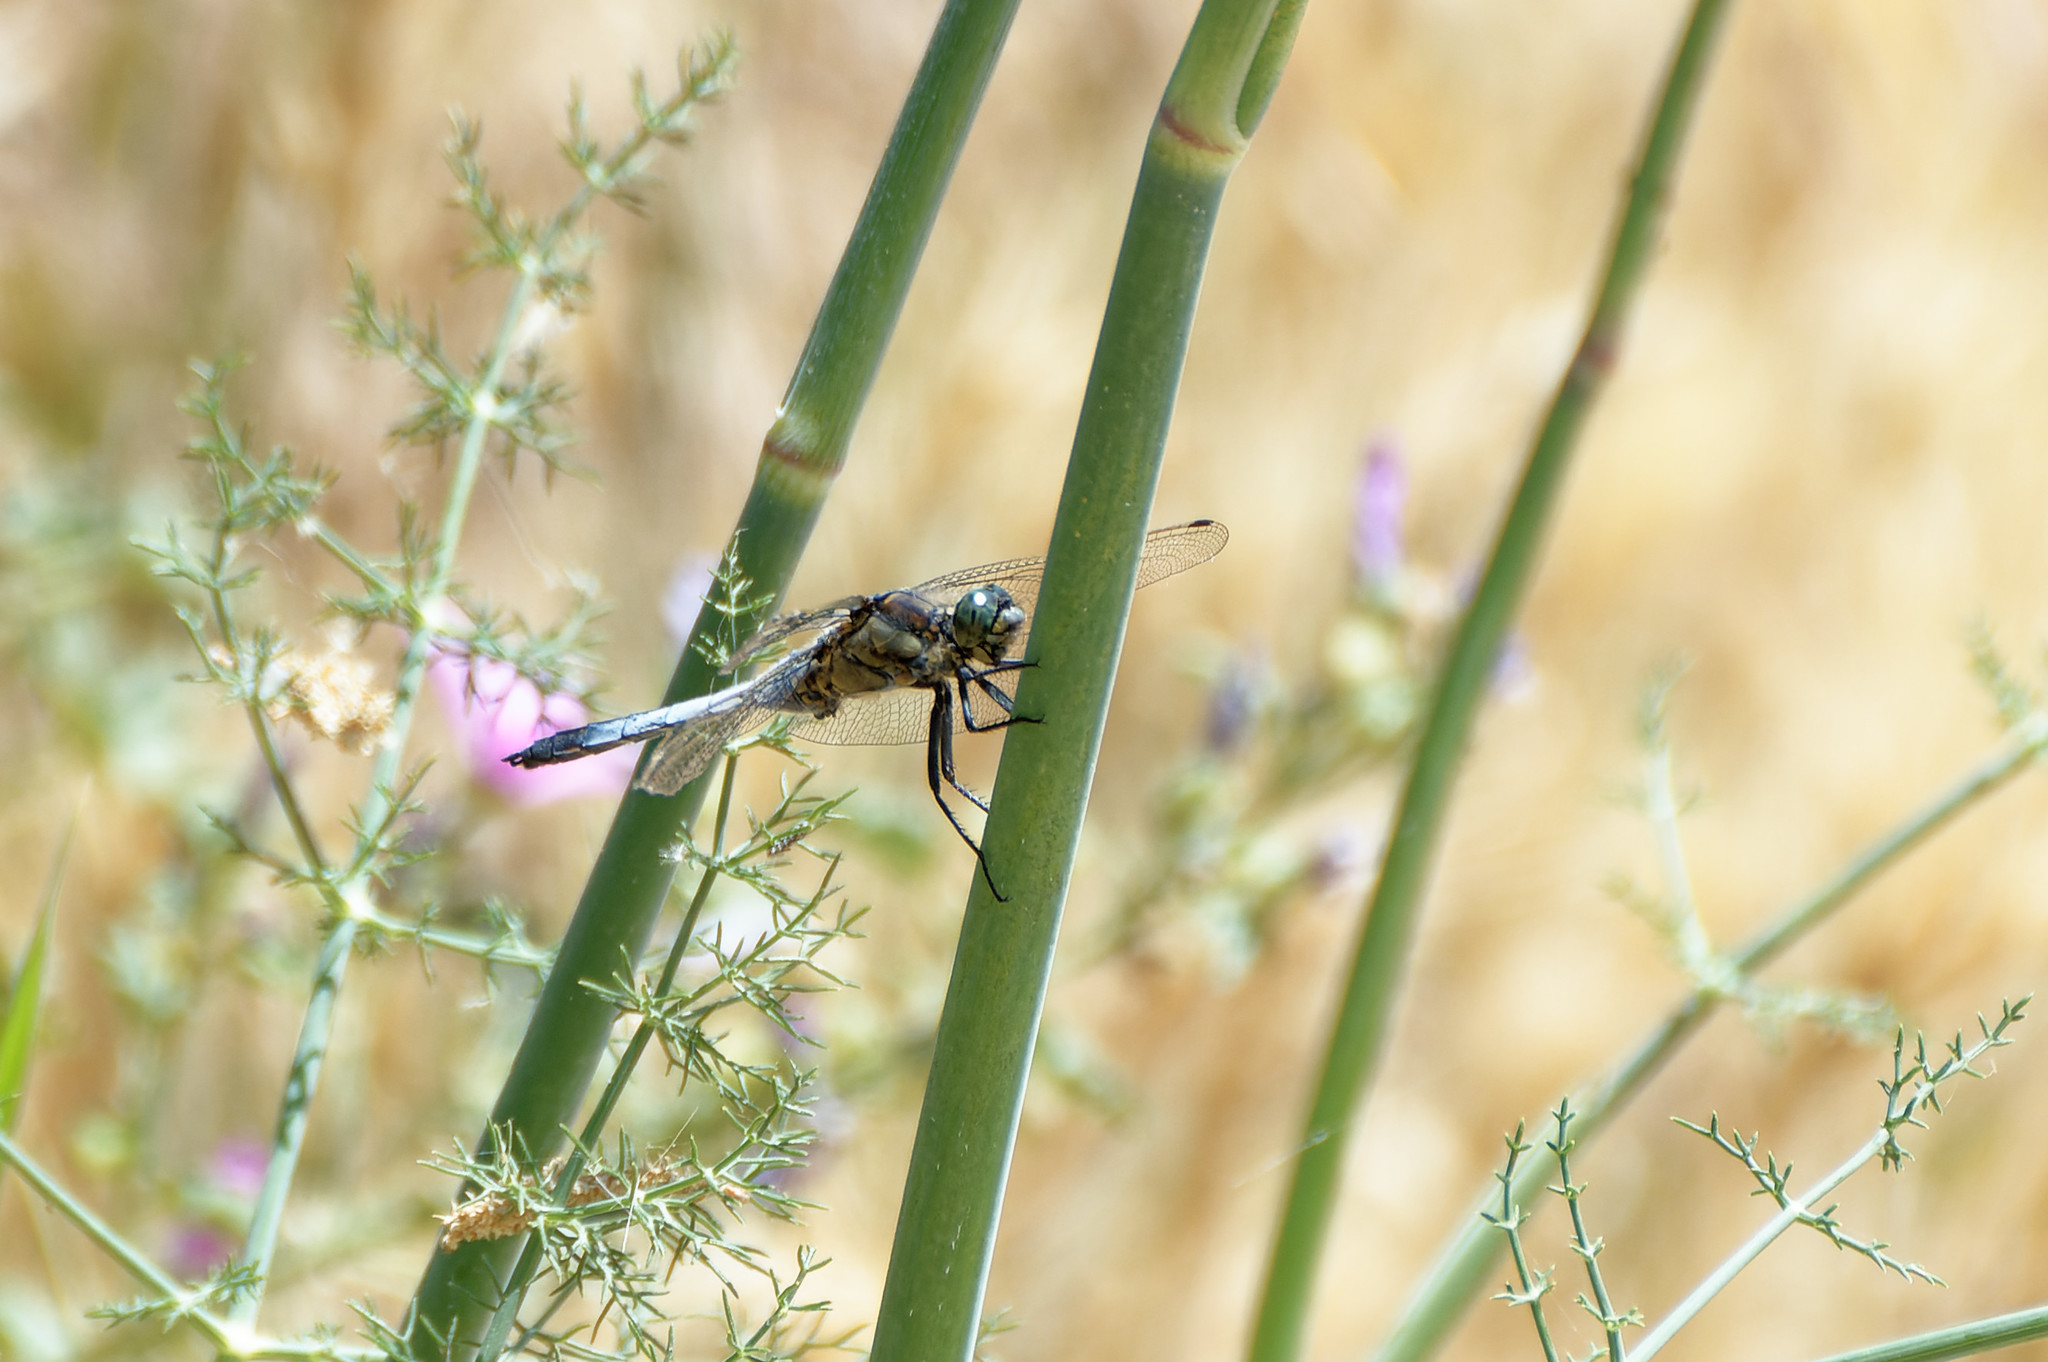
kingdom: Animalia
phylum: Arthropoda
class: Insecta
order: Odonata
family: Libellulidae
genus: Orthetrum
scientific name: Orthetrum cancellatum
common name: Black-tailed skimmer
